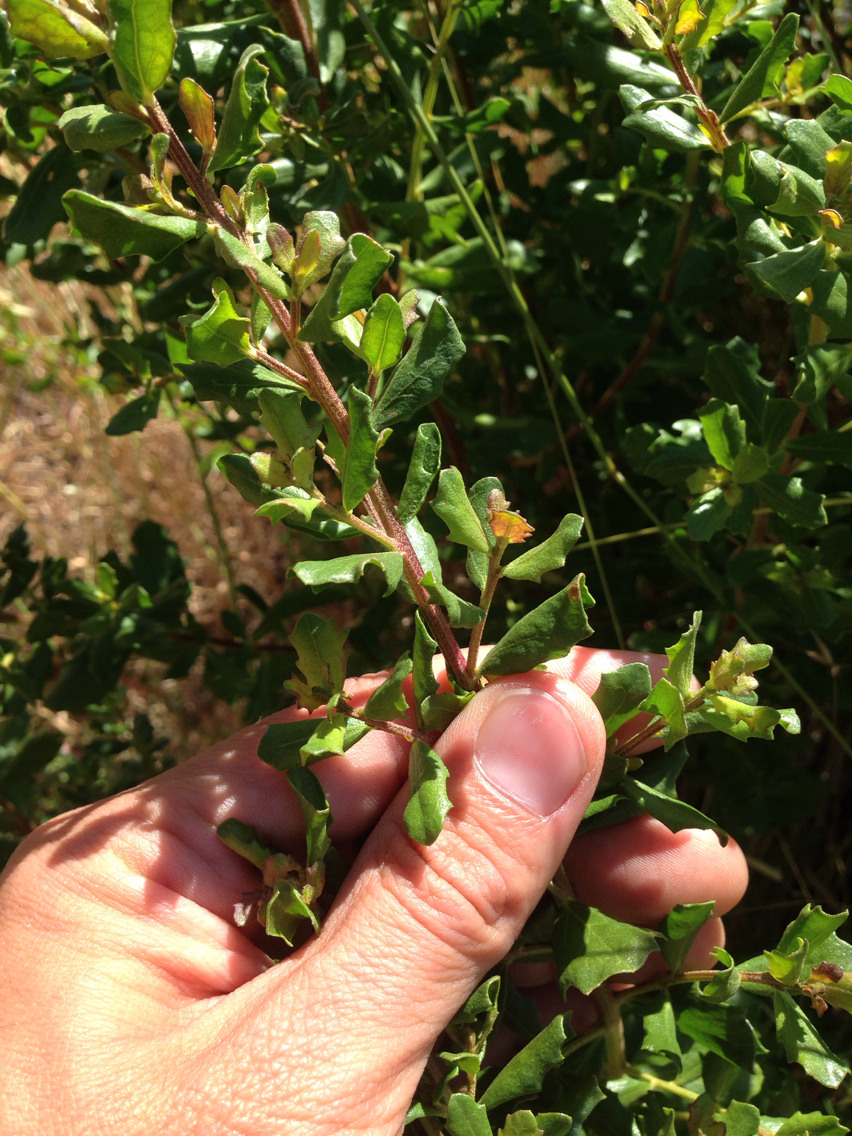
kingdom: Plantae
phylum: Tracheophyta
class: Magnoliopsida
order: Asterales
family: Asteraceae
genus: Baccharis
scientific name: Baccharis pilularis
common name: Coyotebrush
